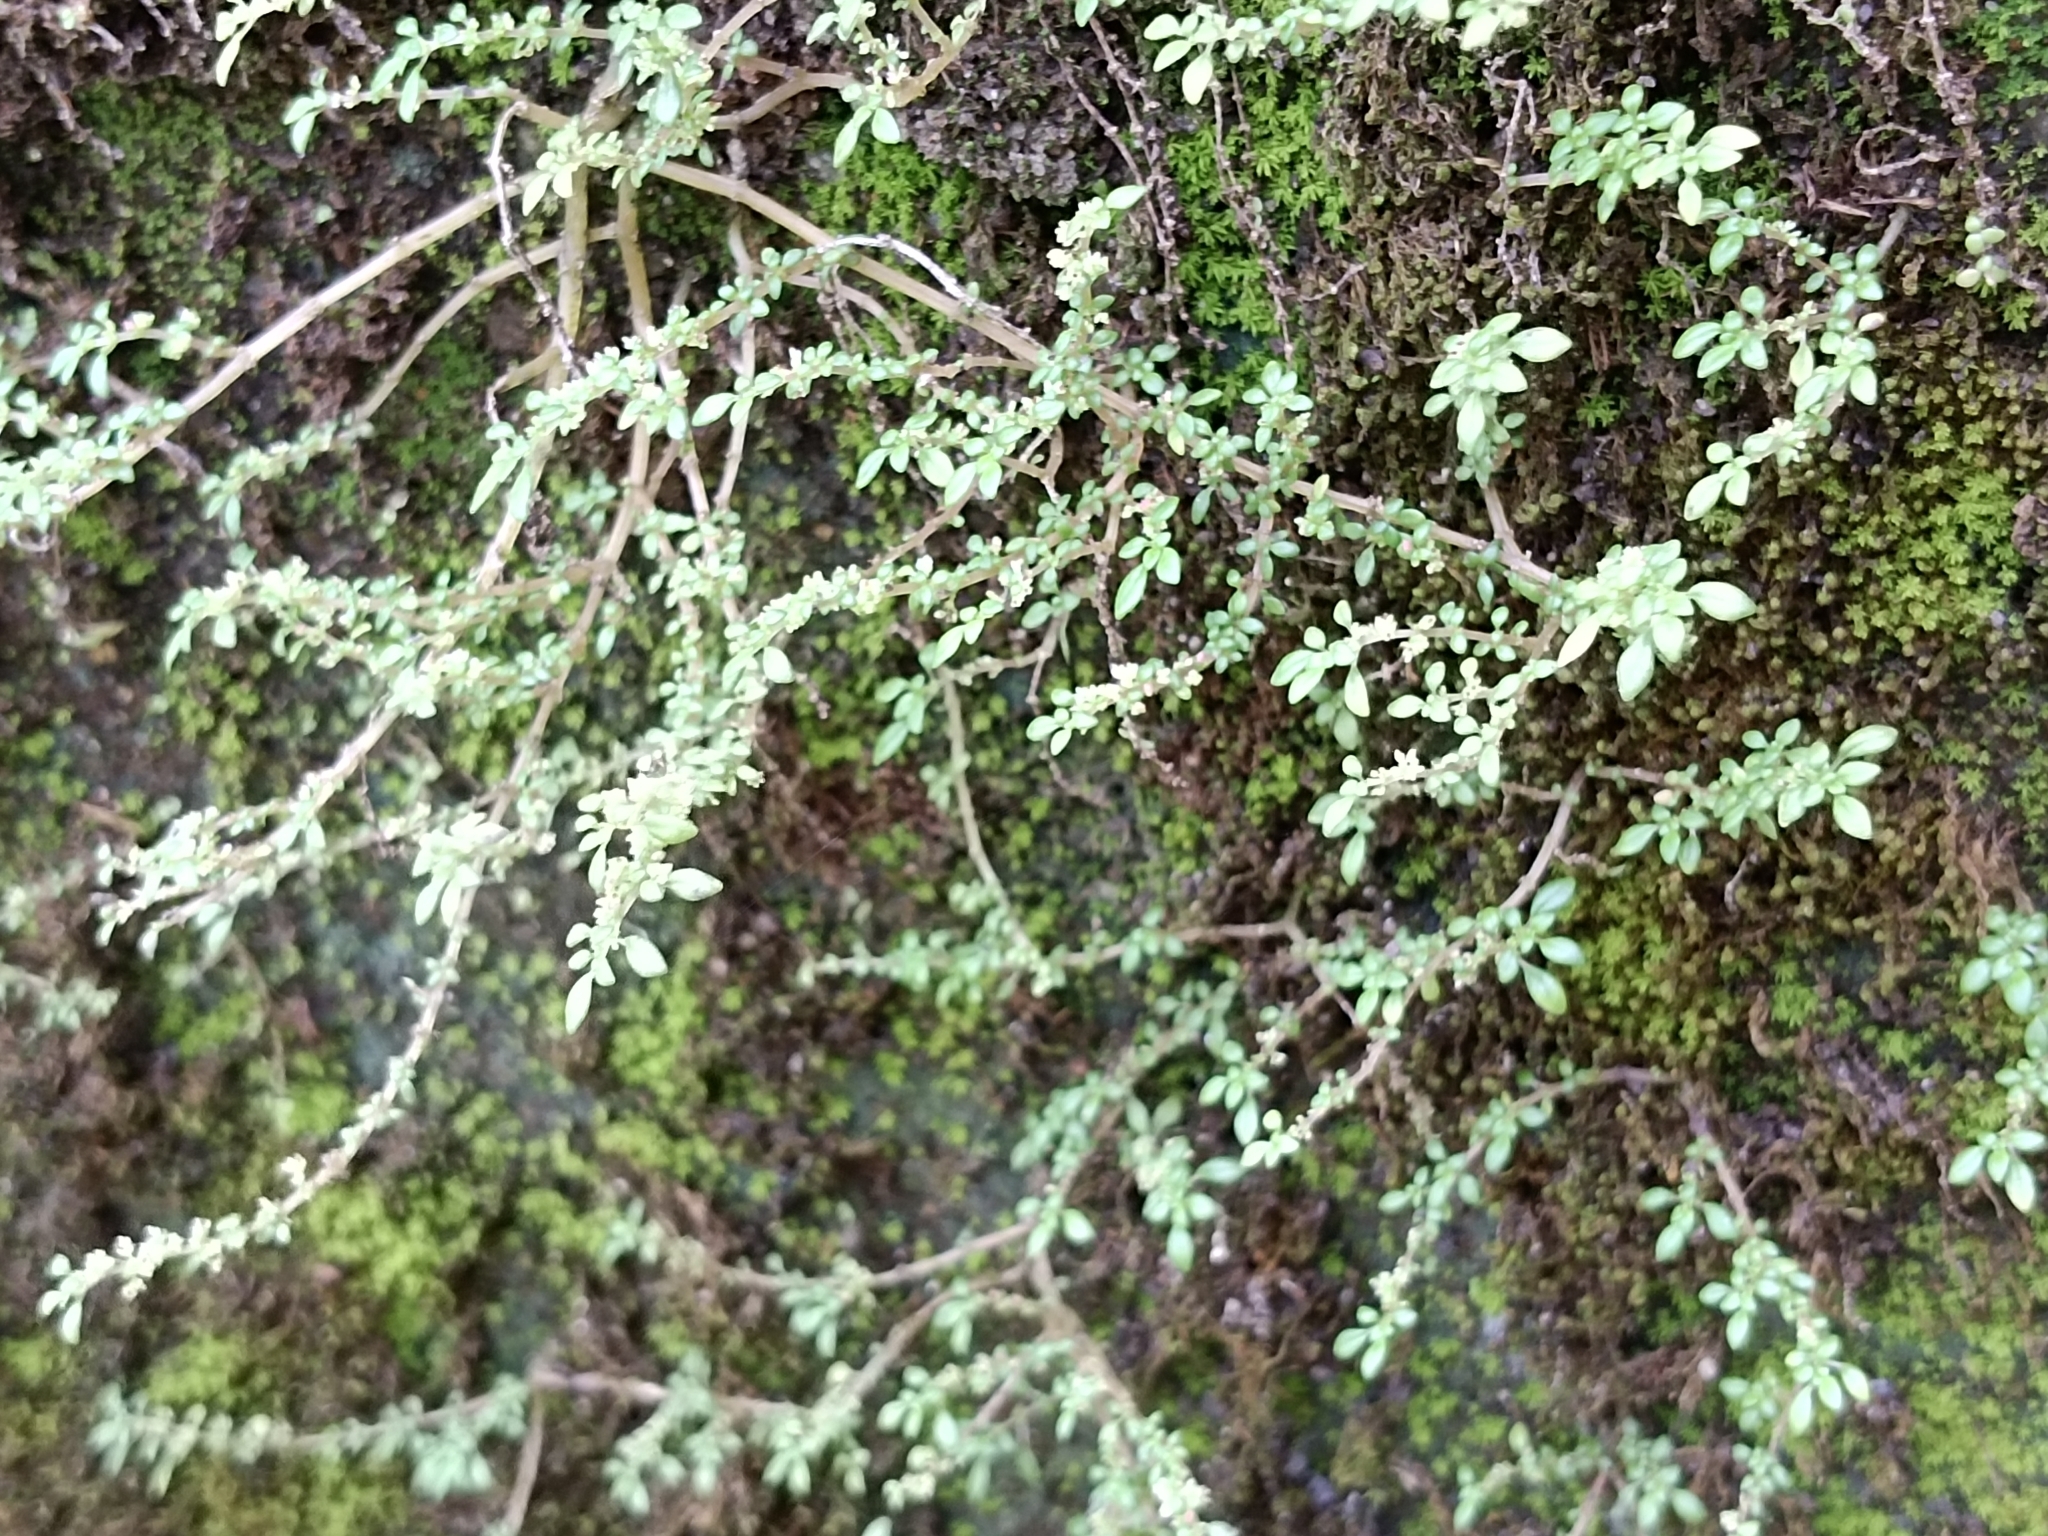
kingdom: Plantae
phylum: Tracheophyta
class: Magnoliopsida
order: Rosales
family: Urticaceae
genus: Pilea
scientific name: Pilea microphylla
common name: Artillery-plant
